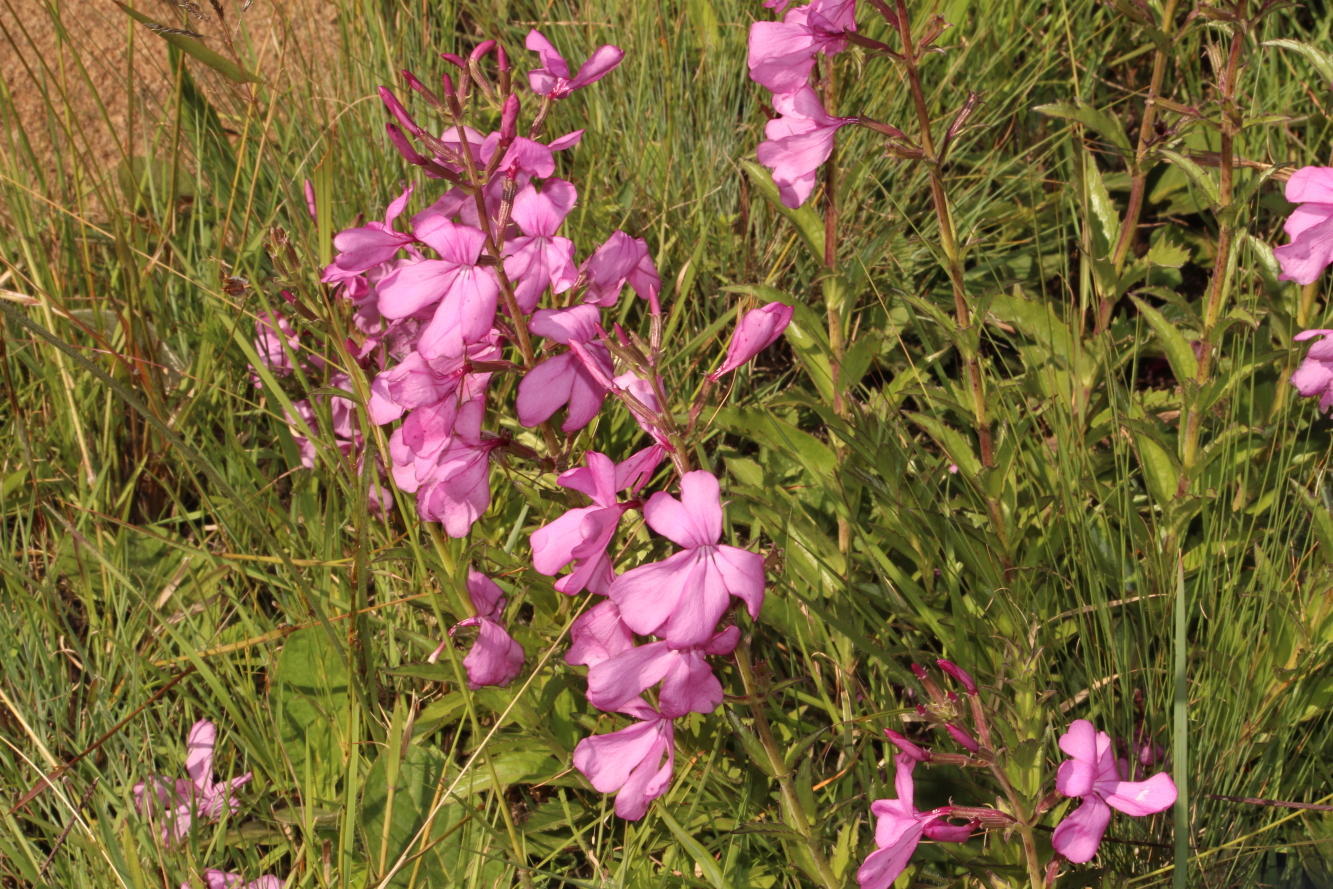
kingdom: Plantae
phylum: Tracheophyta
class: Magnoliopsida
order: Lamiales
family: Orobanchaceae
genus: Cycnium
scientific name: Cycnium racemosum
